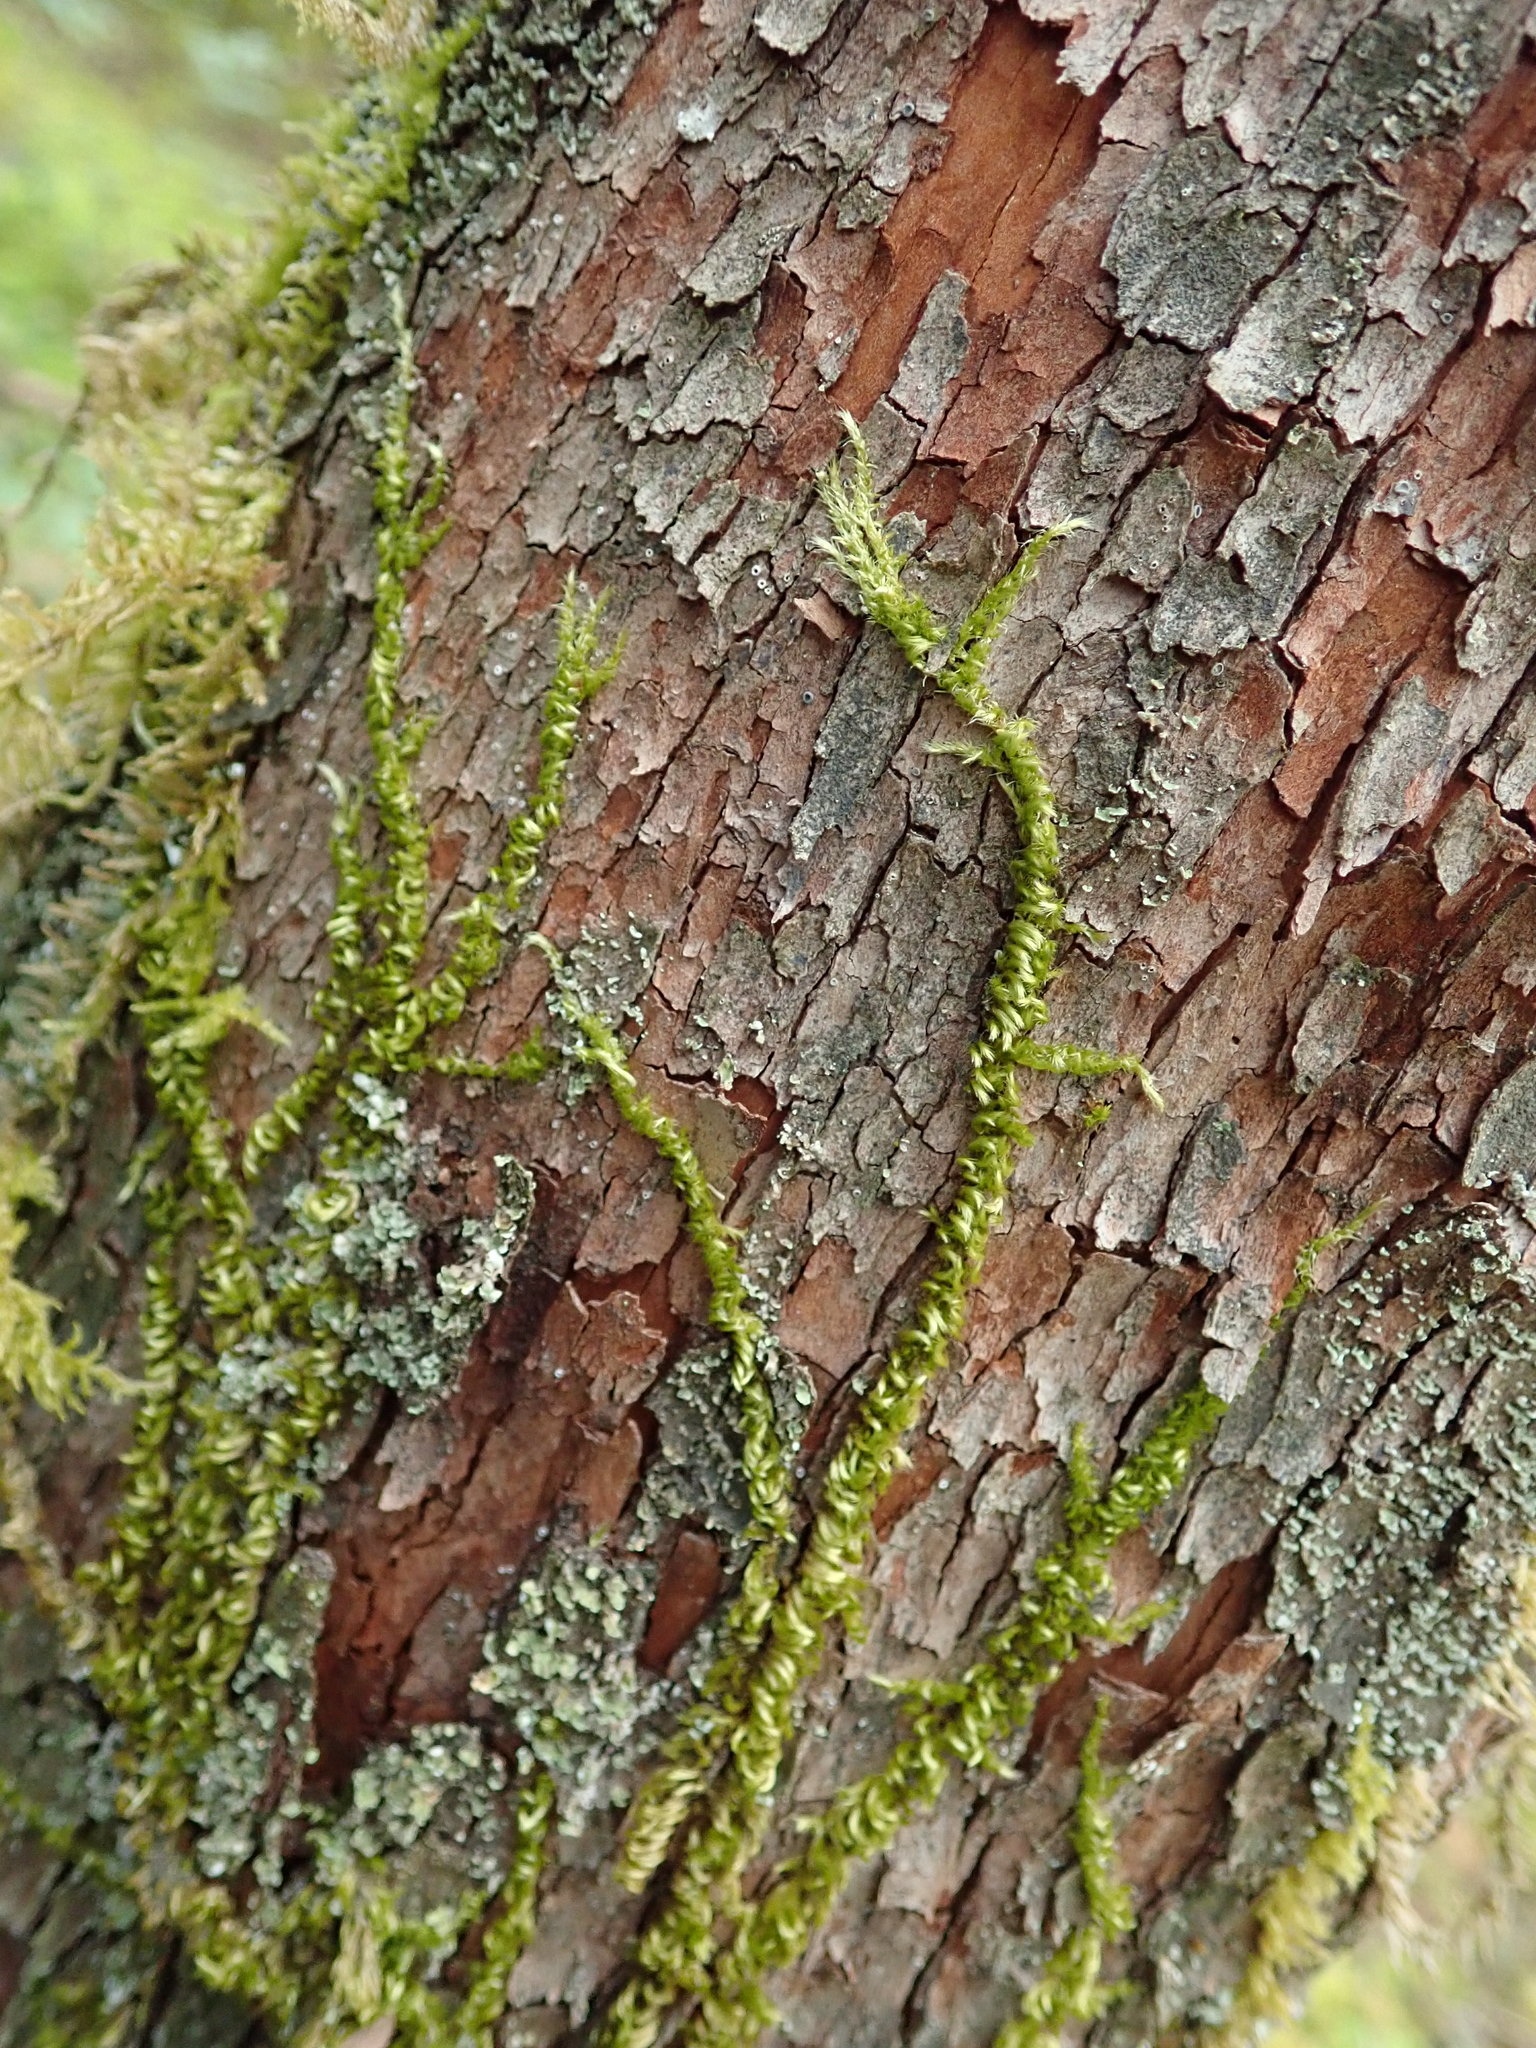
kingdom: Plantae
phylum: Bryophyta
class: Bryopsida
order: Hypnales
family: Brachytheciaceae
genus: Homalothecium
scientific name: Homalothecium nuttallii
